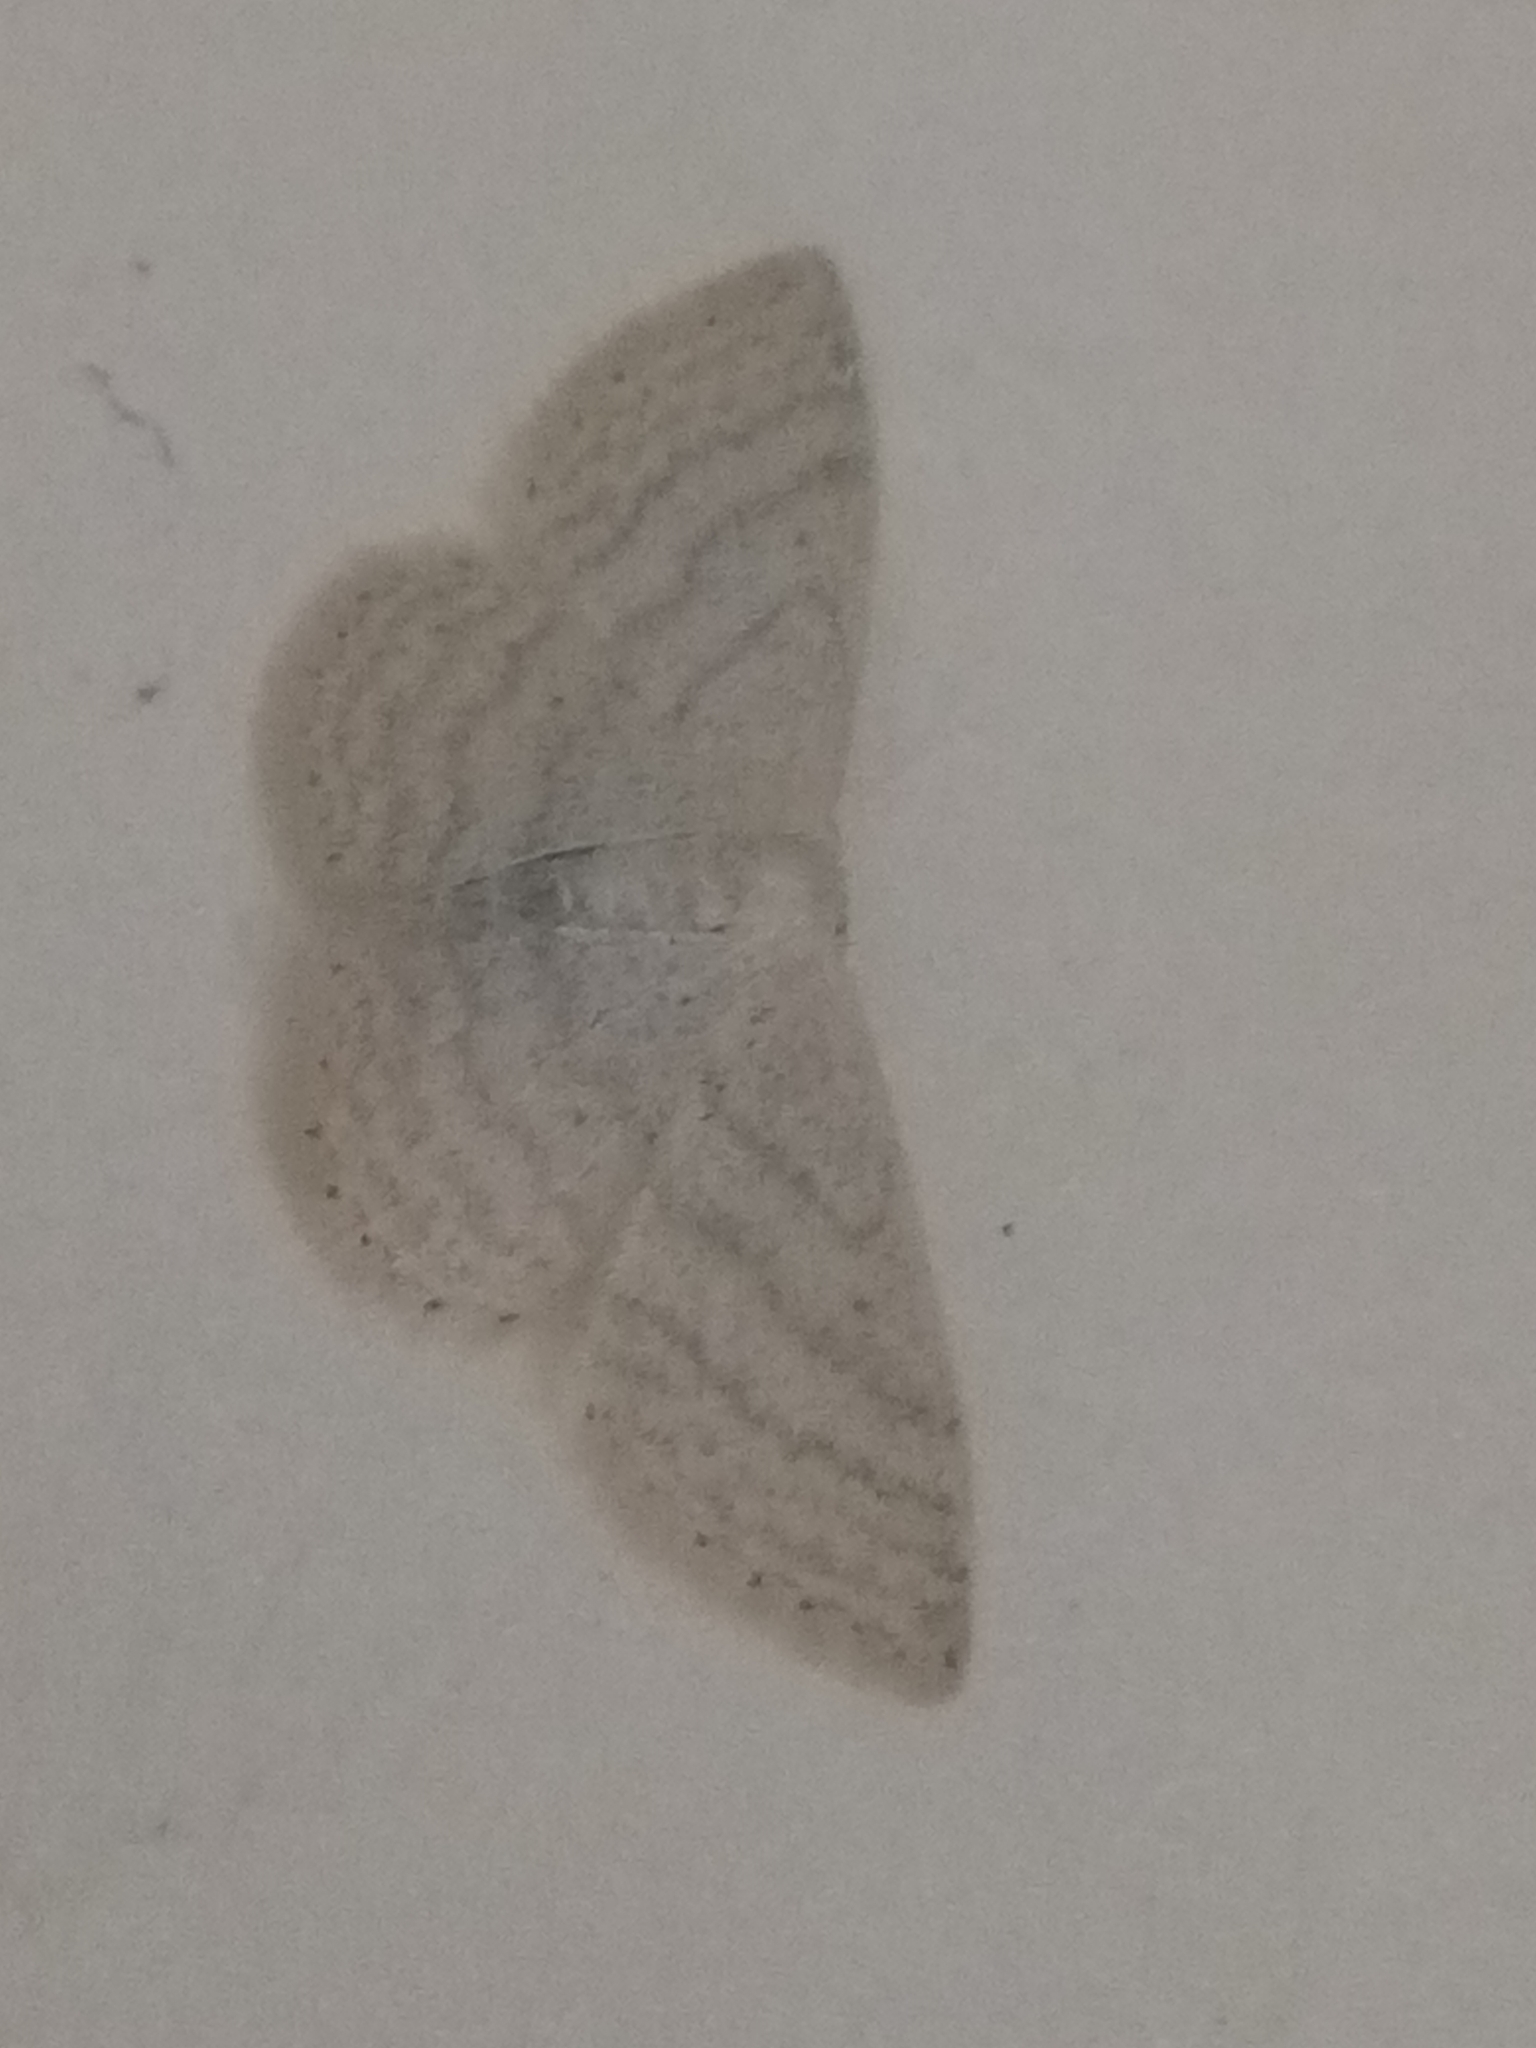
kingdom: Animalia
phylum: Arthropoda
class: Insecta
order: Lepidoptera
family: Geometridae
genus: Idaea
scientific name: Idaea subsericeata
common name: Satin wave
